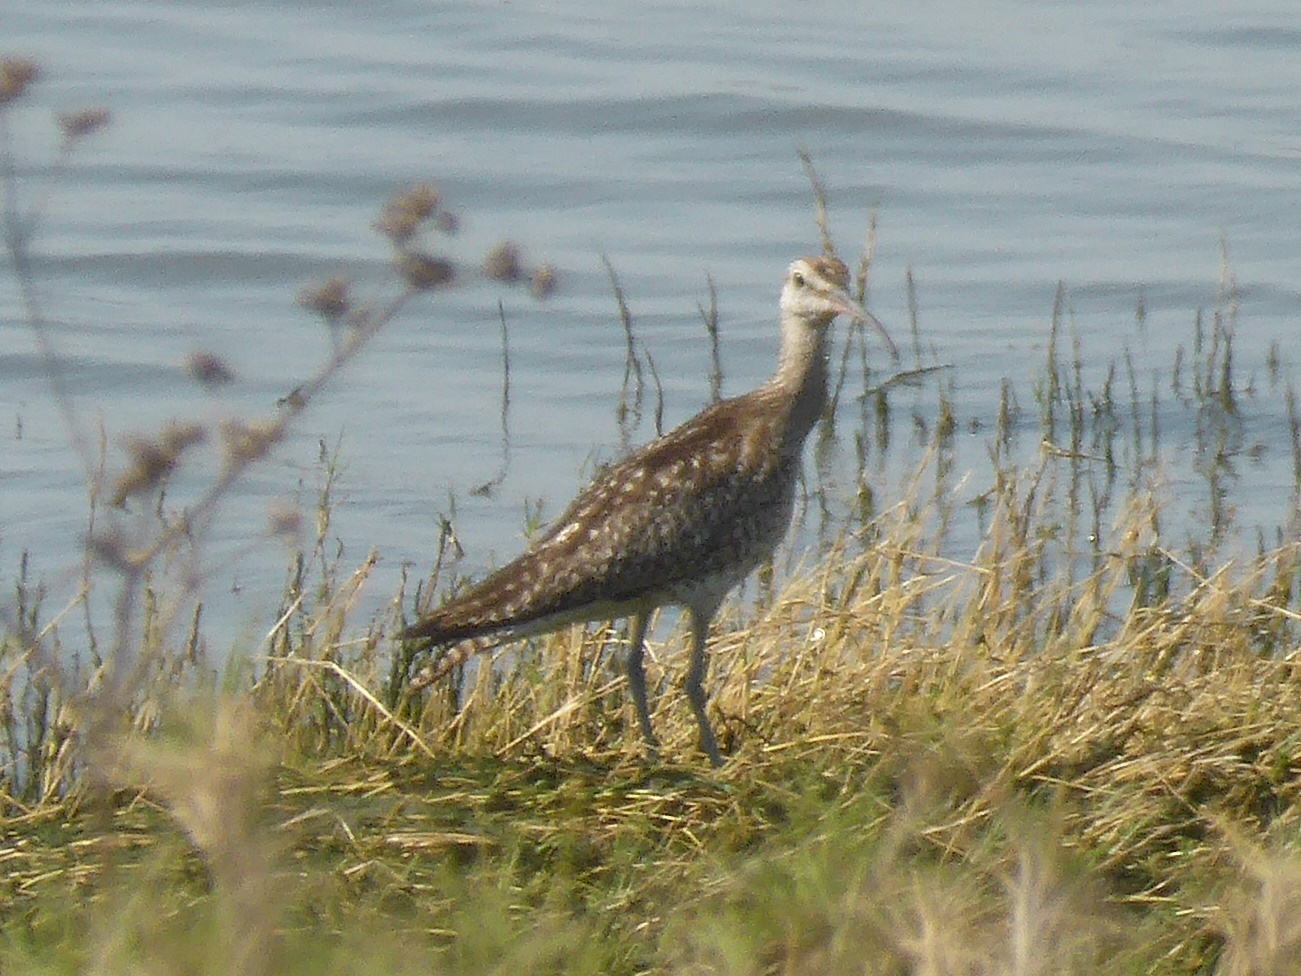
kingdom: Animalia
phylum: Chordata
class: Aves
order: Charadriiformes
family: Scolopacidae
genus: Numenius
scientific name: Numenius phaeopus
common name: Whimbrel
